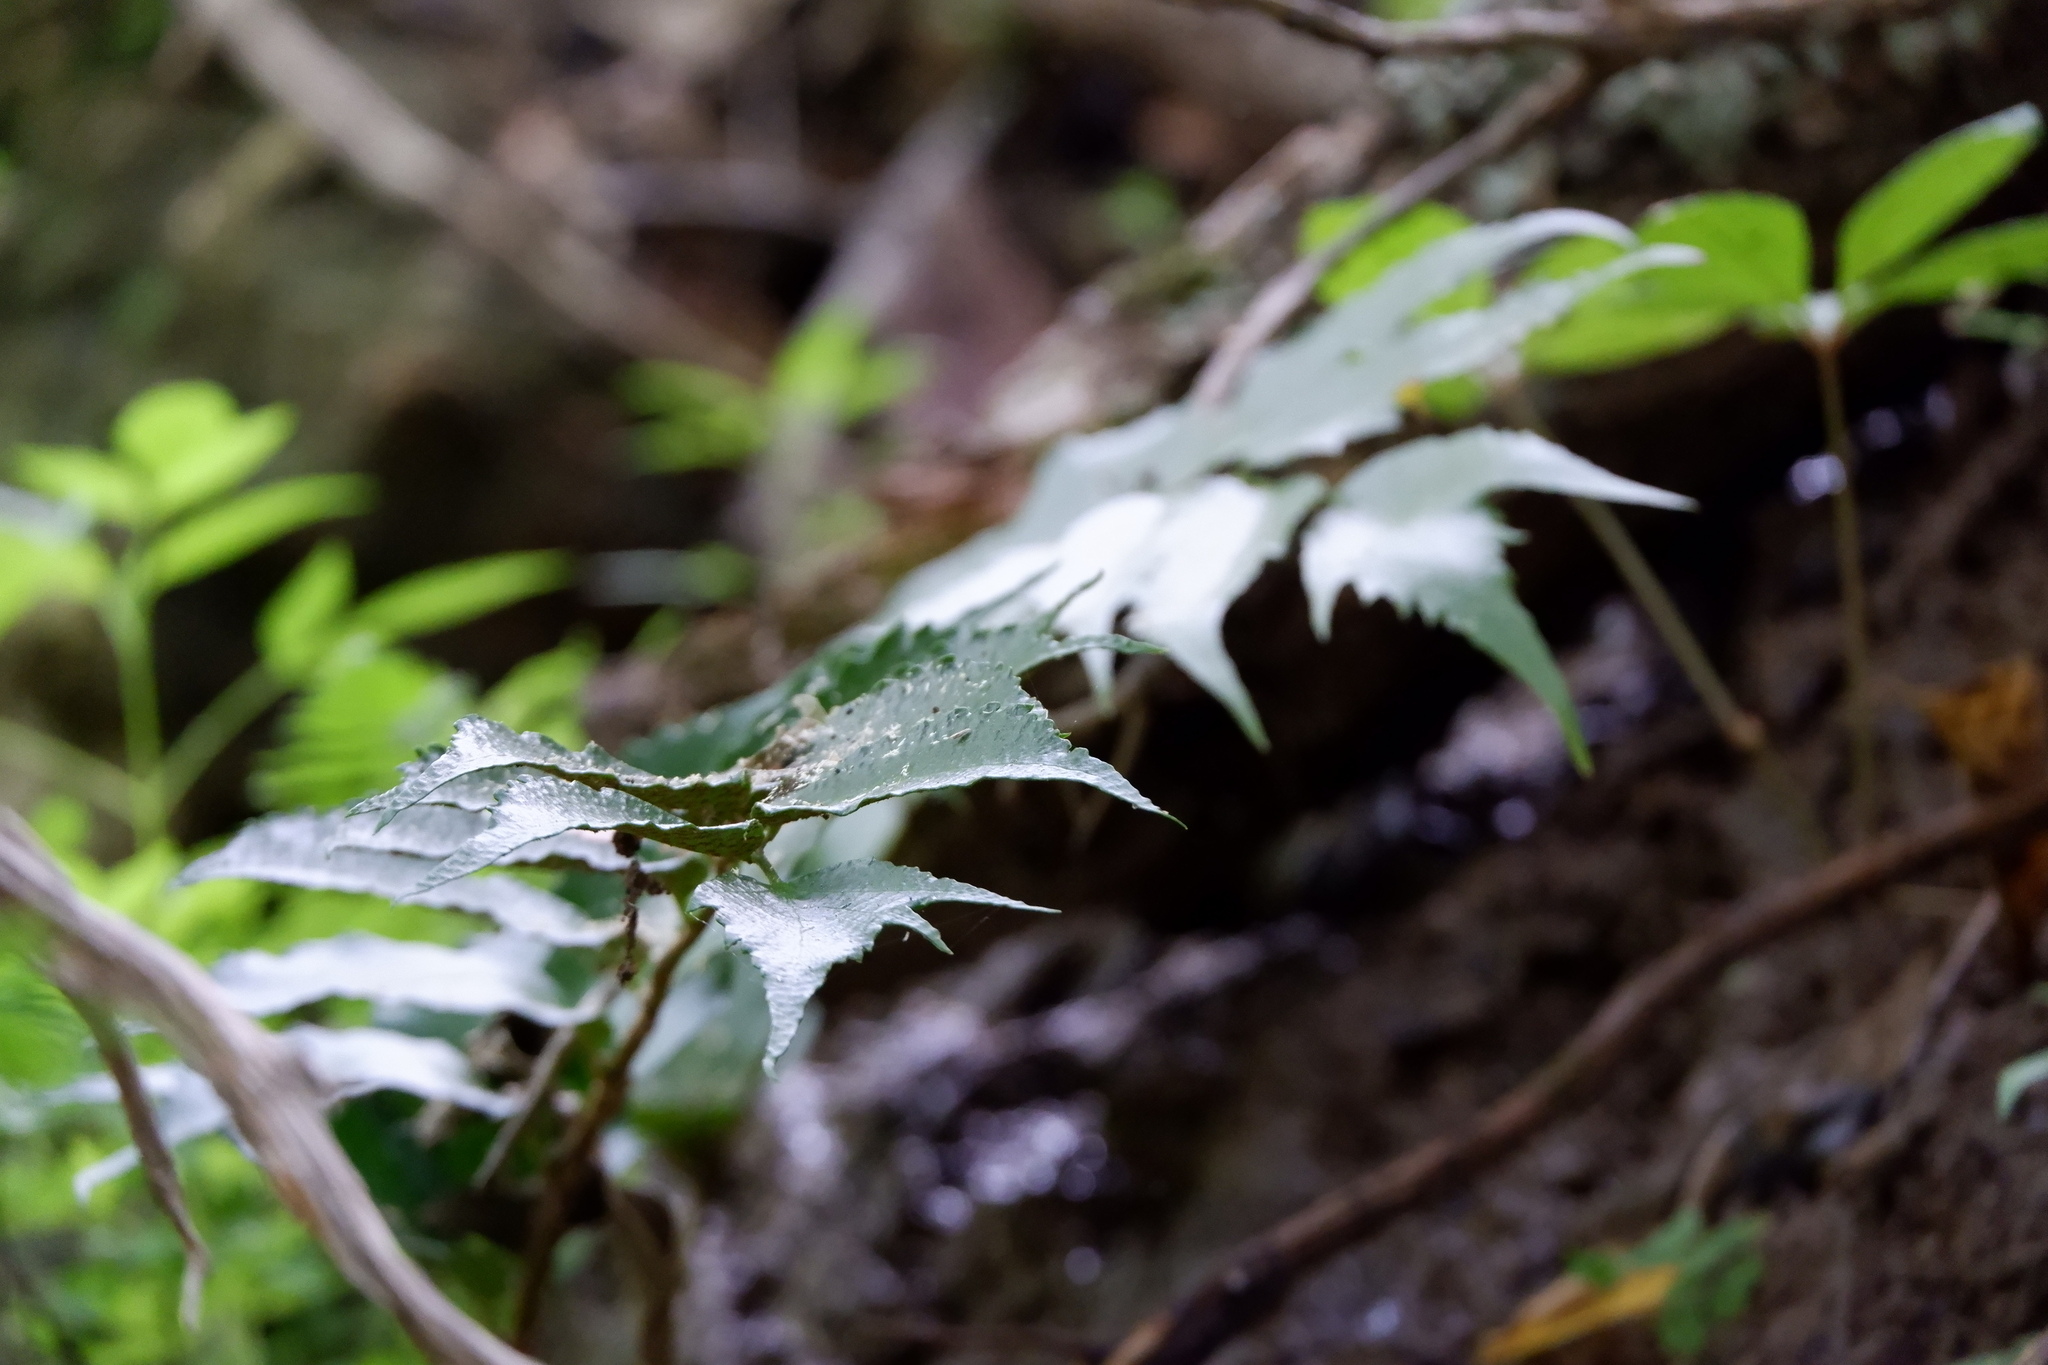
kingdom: Plantae
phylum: Tracheophyta
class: Polypodiopsida
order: Polypodiales
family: Dryopteridaceae
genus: Cyrtomium
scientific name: Cyrtomium falcatum
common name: House holly-fern
